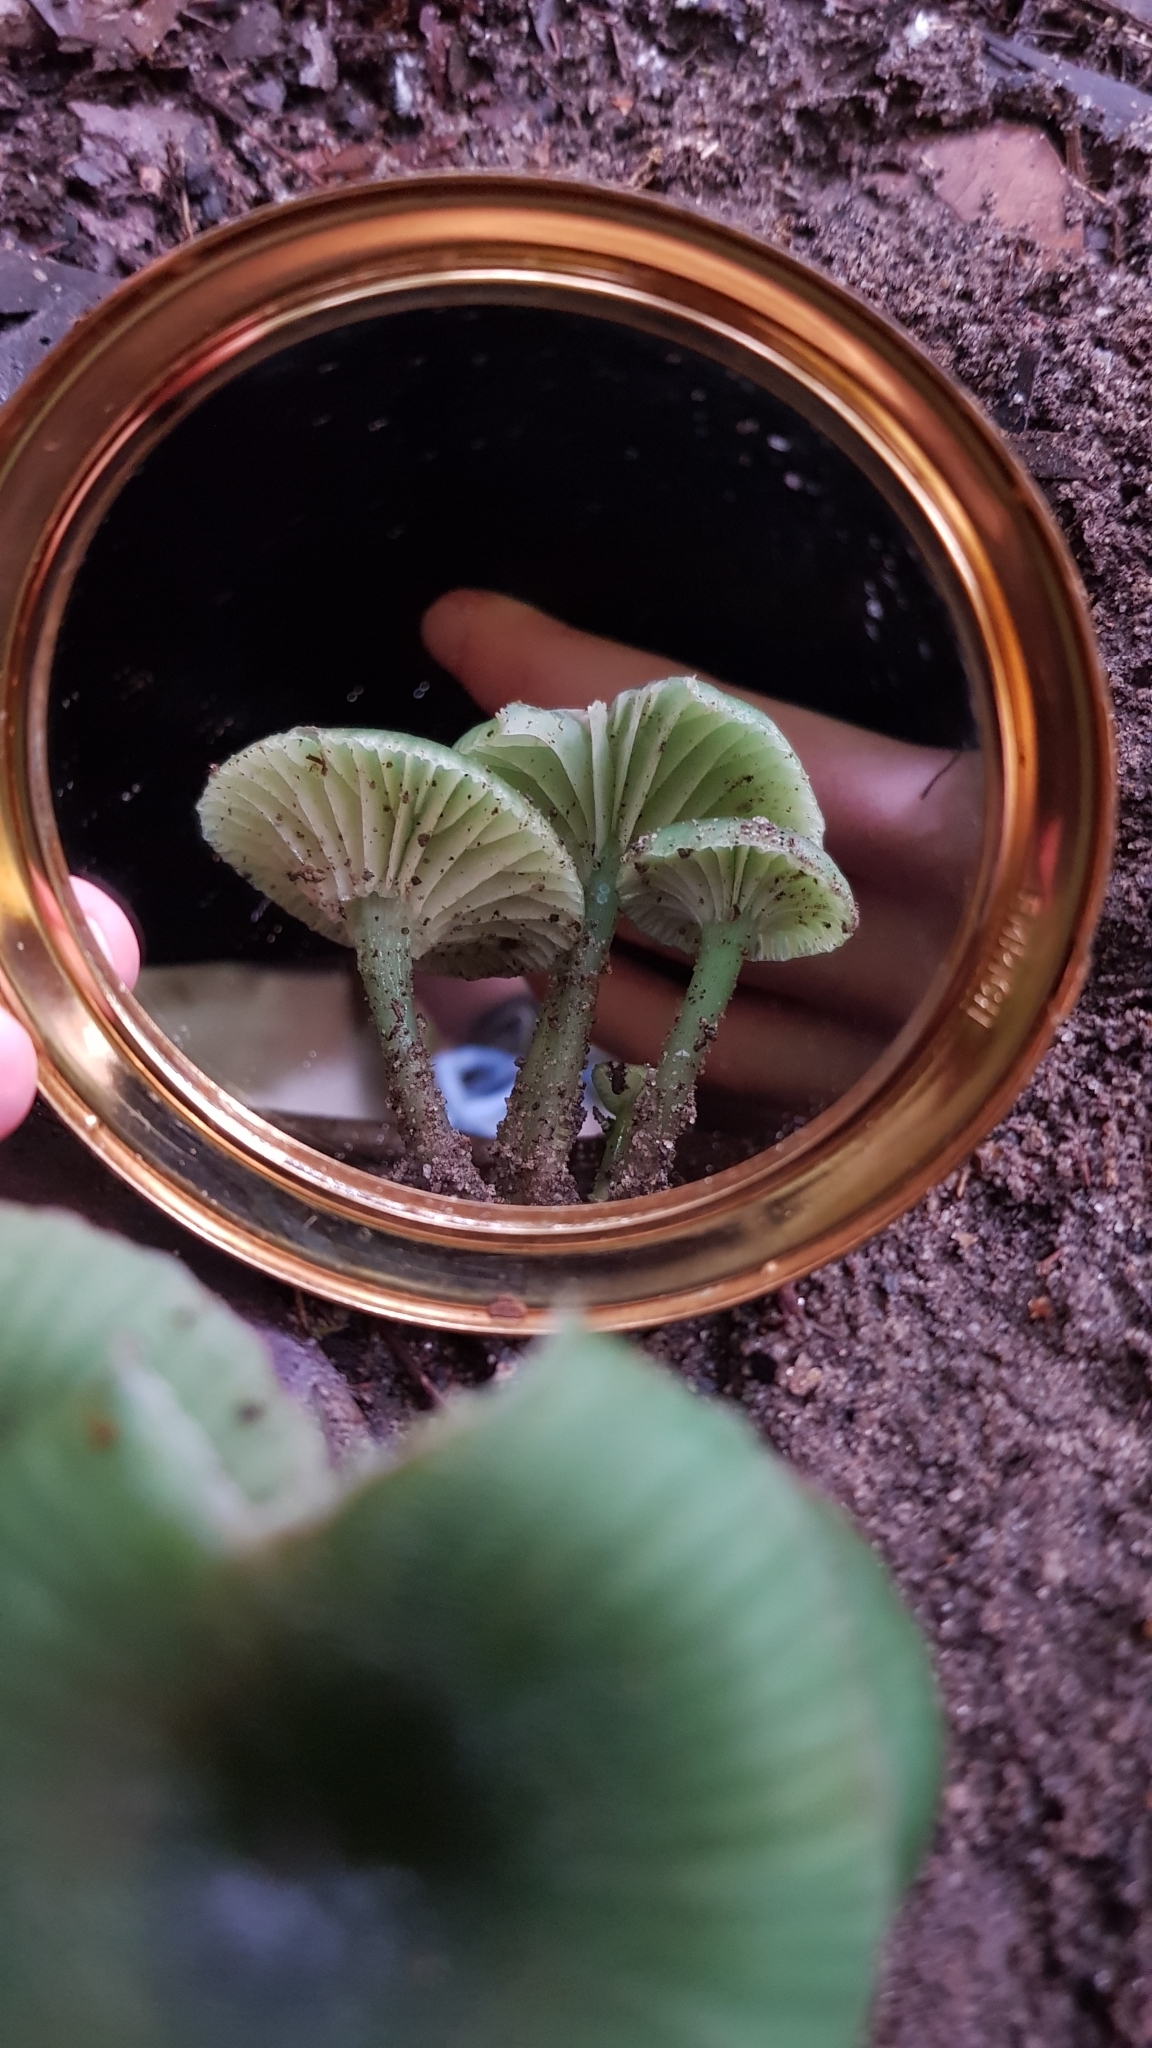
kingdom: Fungi
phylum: Basidiomycota
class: Agaricomycetes
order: Agaricales
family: Hygrophoraceae
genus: Gliophorus
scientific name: Gliophorus viridis
